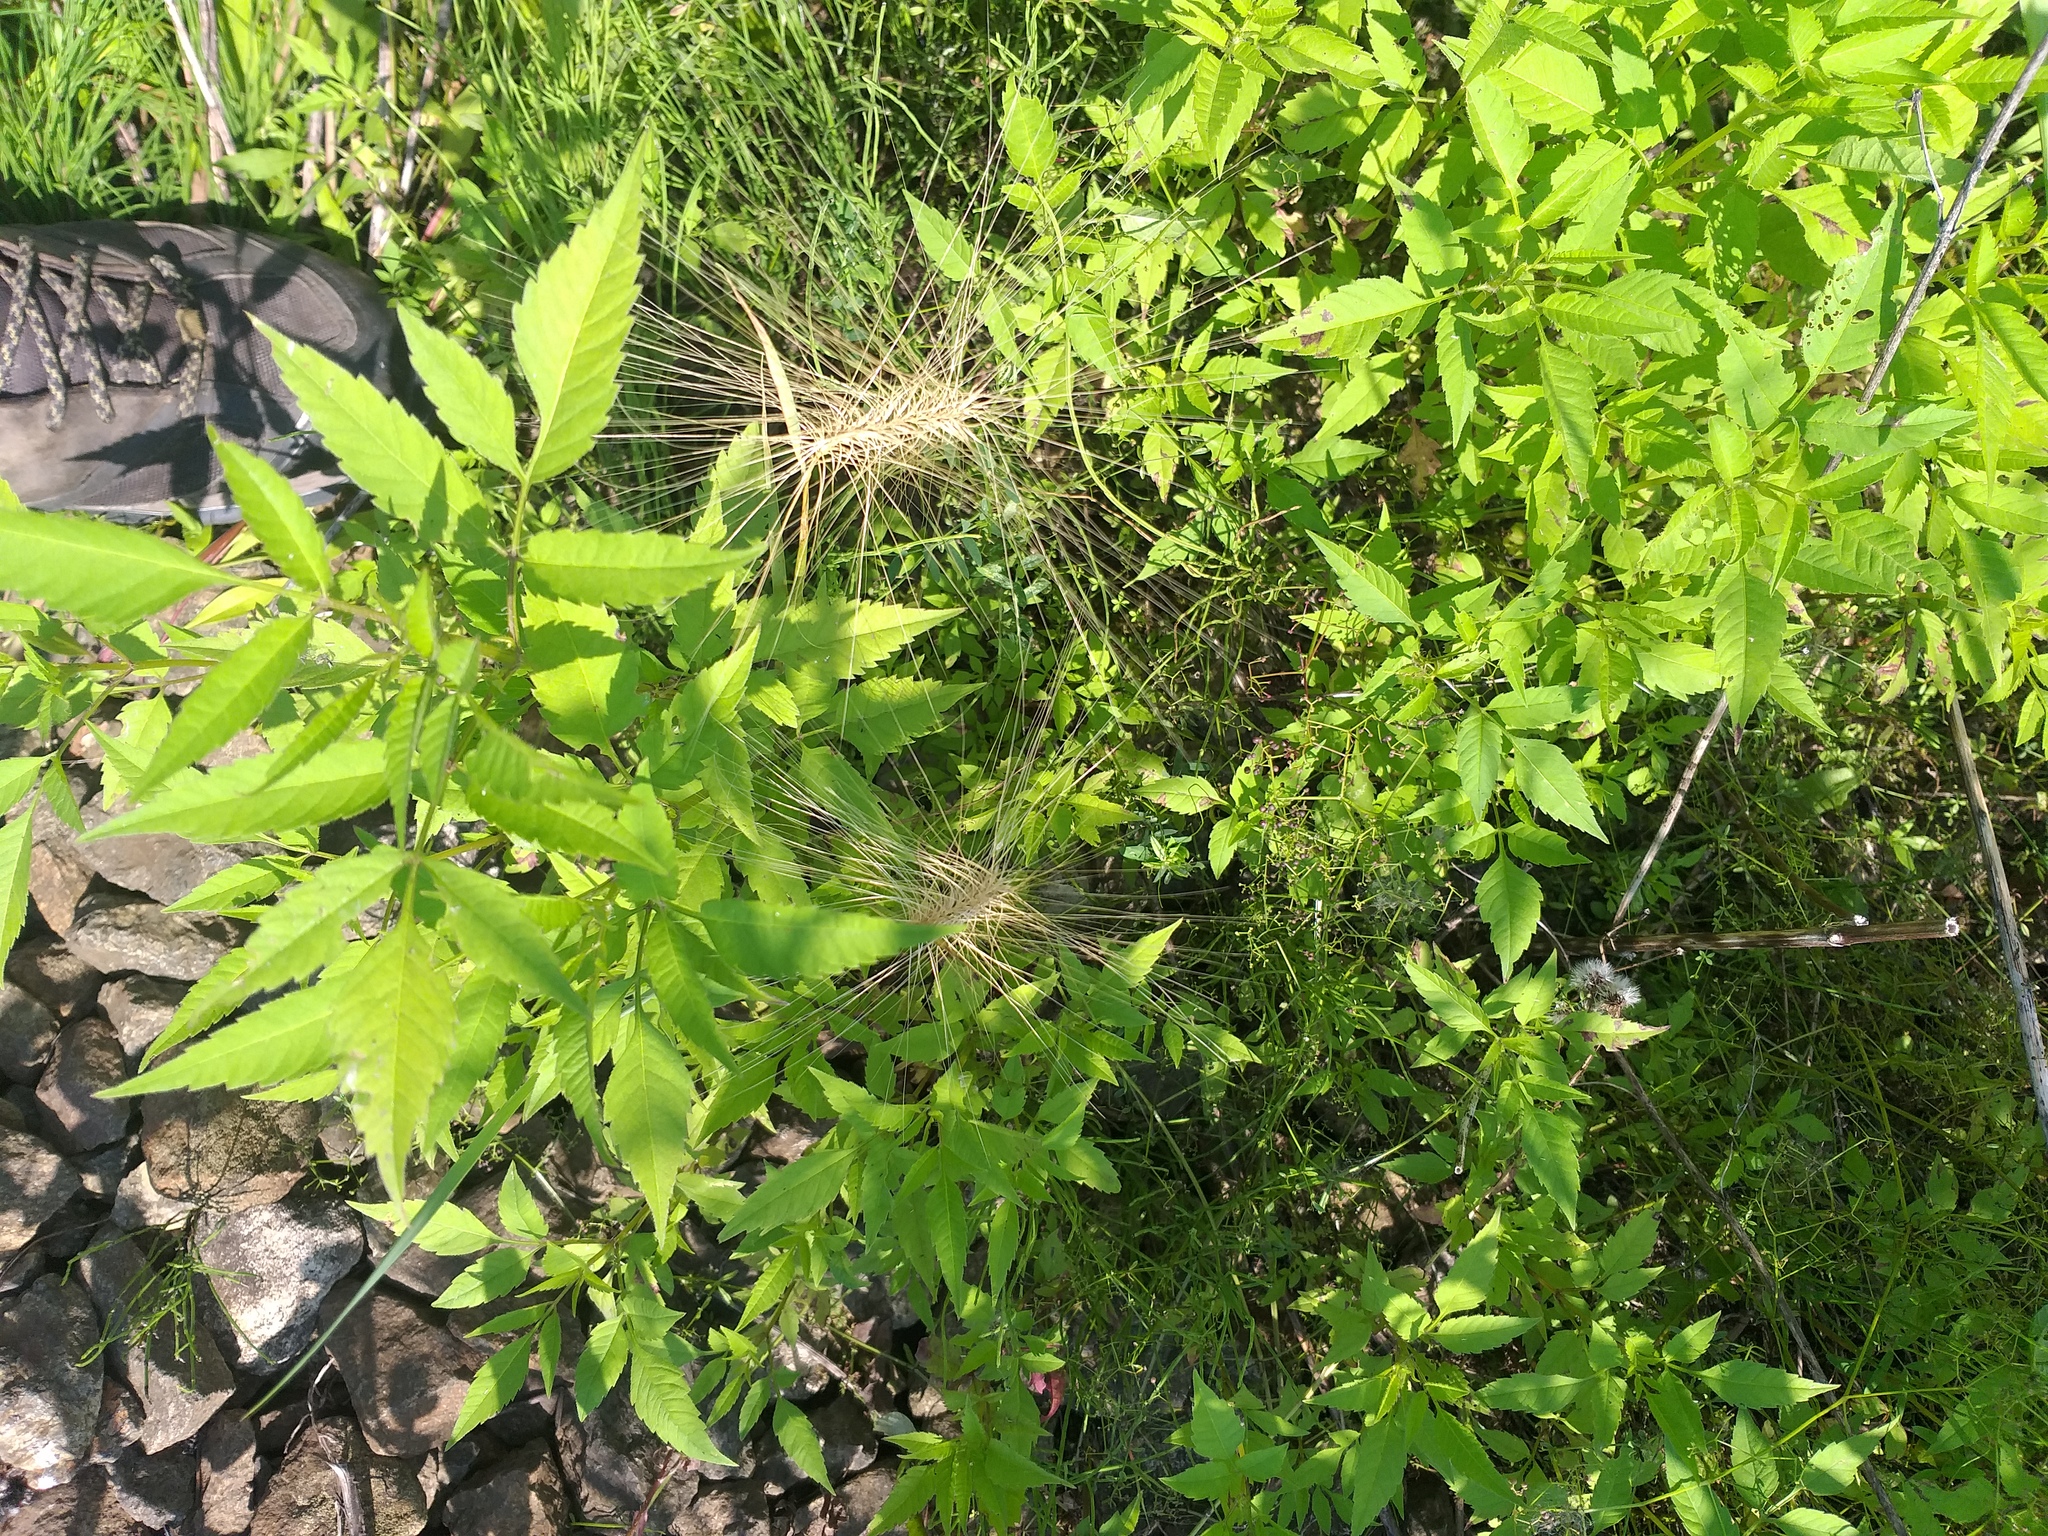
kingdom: Plantae
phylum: Tracheophyta
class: Liliopsida
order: Poales
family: Poaceae
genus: Hordeum
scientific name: Hordeum jubatum
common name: Foxtail barley
